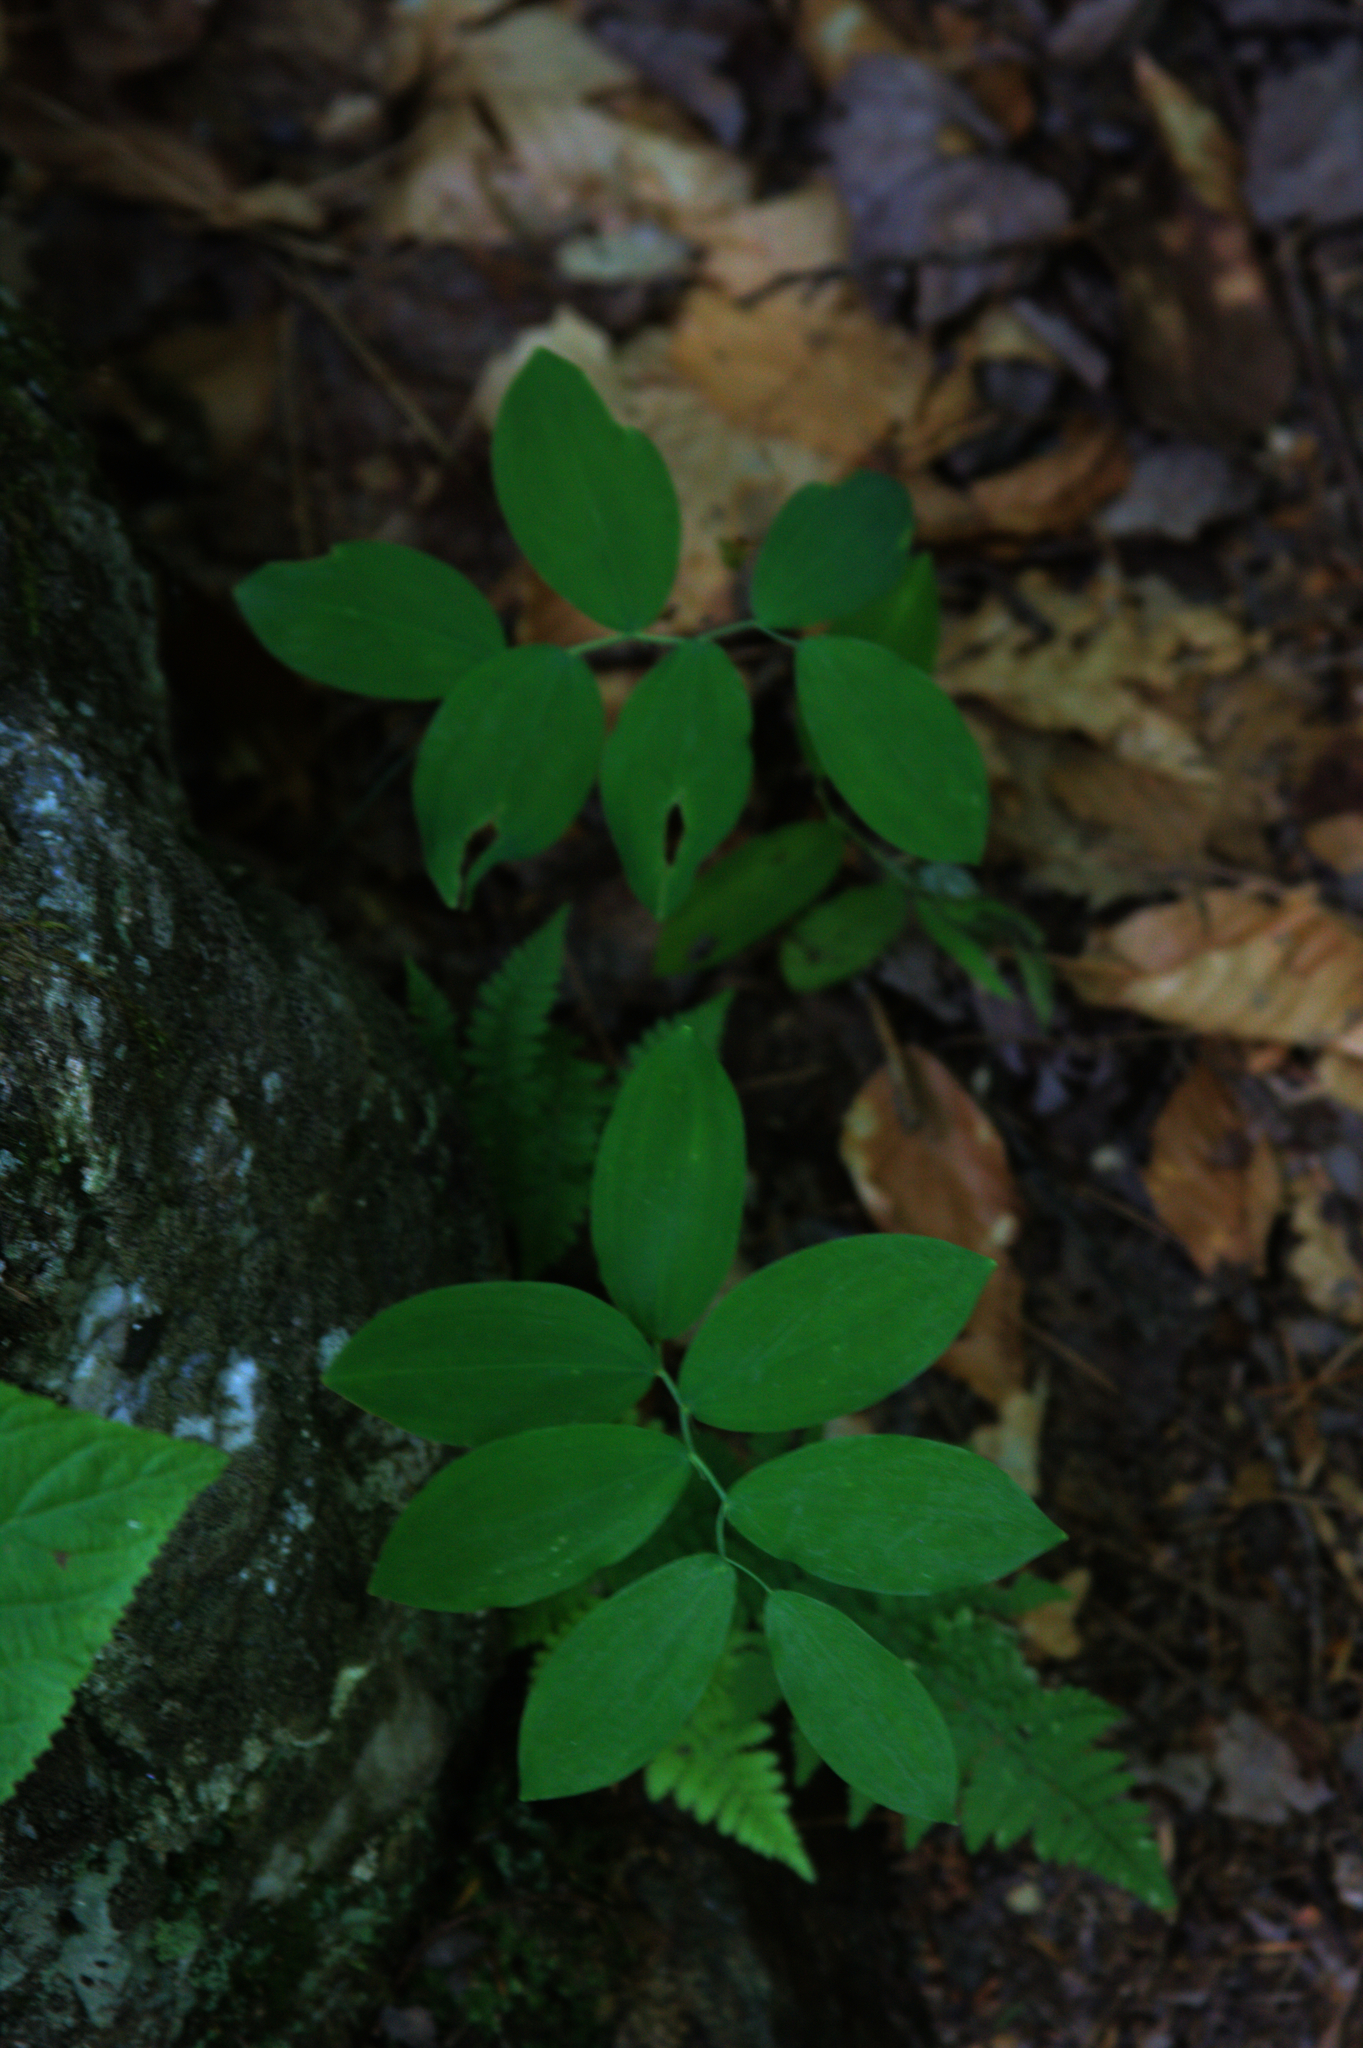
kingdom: Plantae
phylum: Tracheophyta
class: Liliopsida
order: Liliales
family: Colchicaceae
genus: Uvularia
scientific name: Uvularia sessilifolia
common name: Straw-lily
